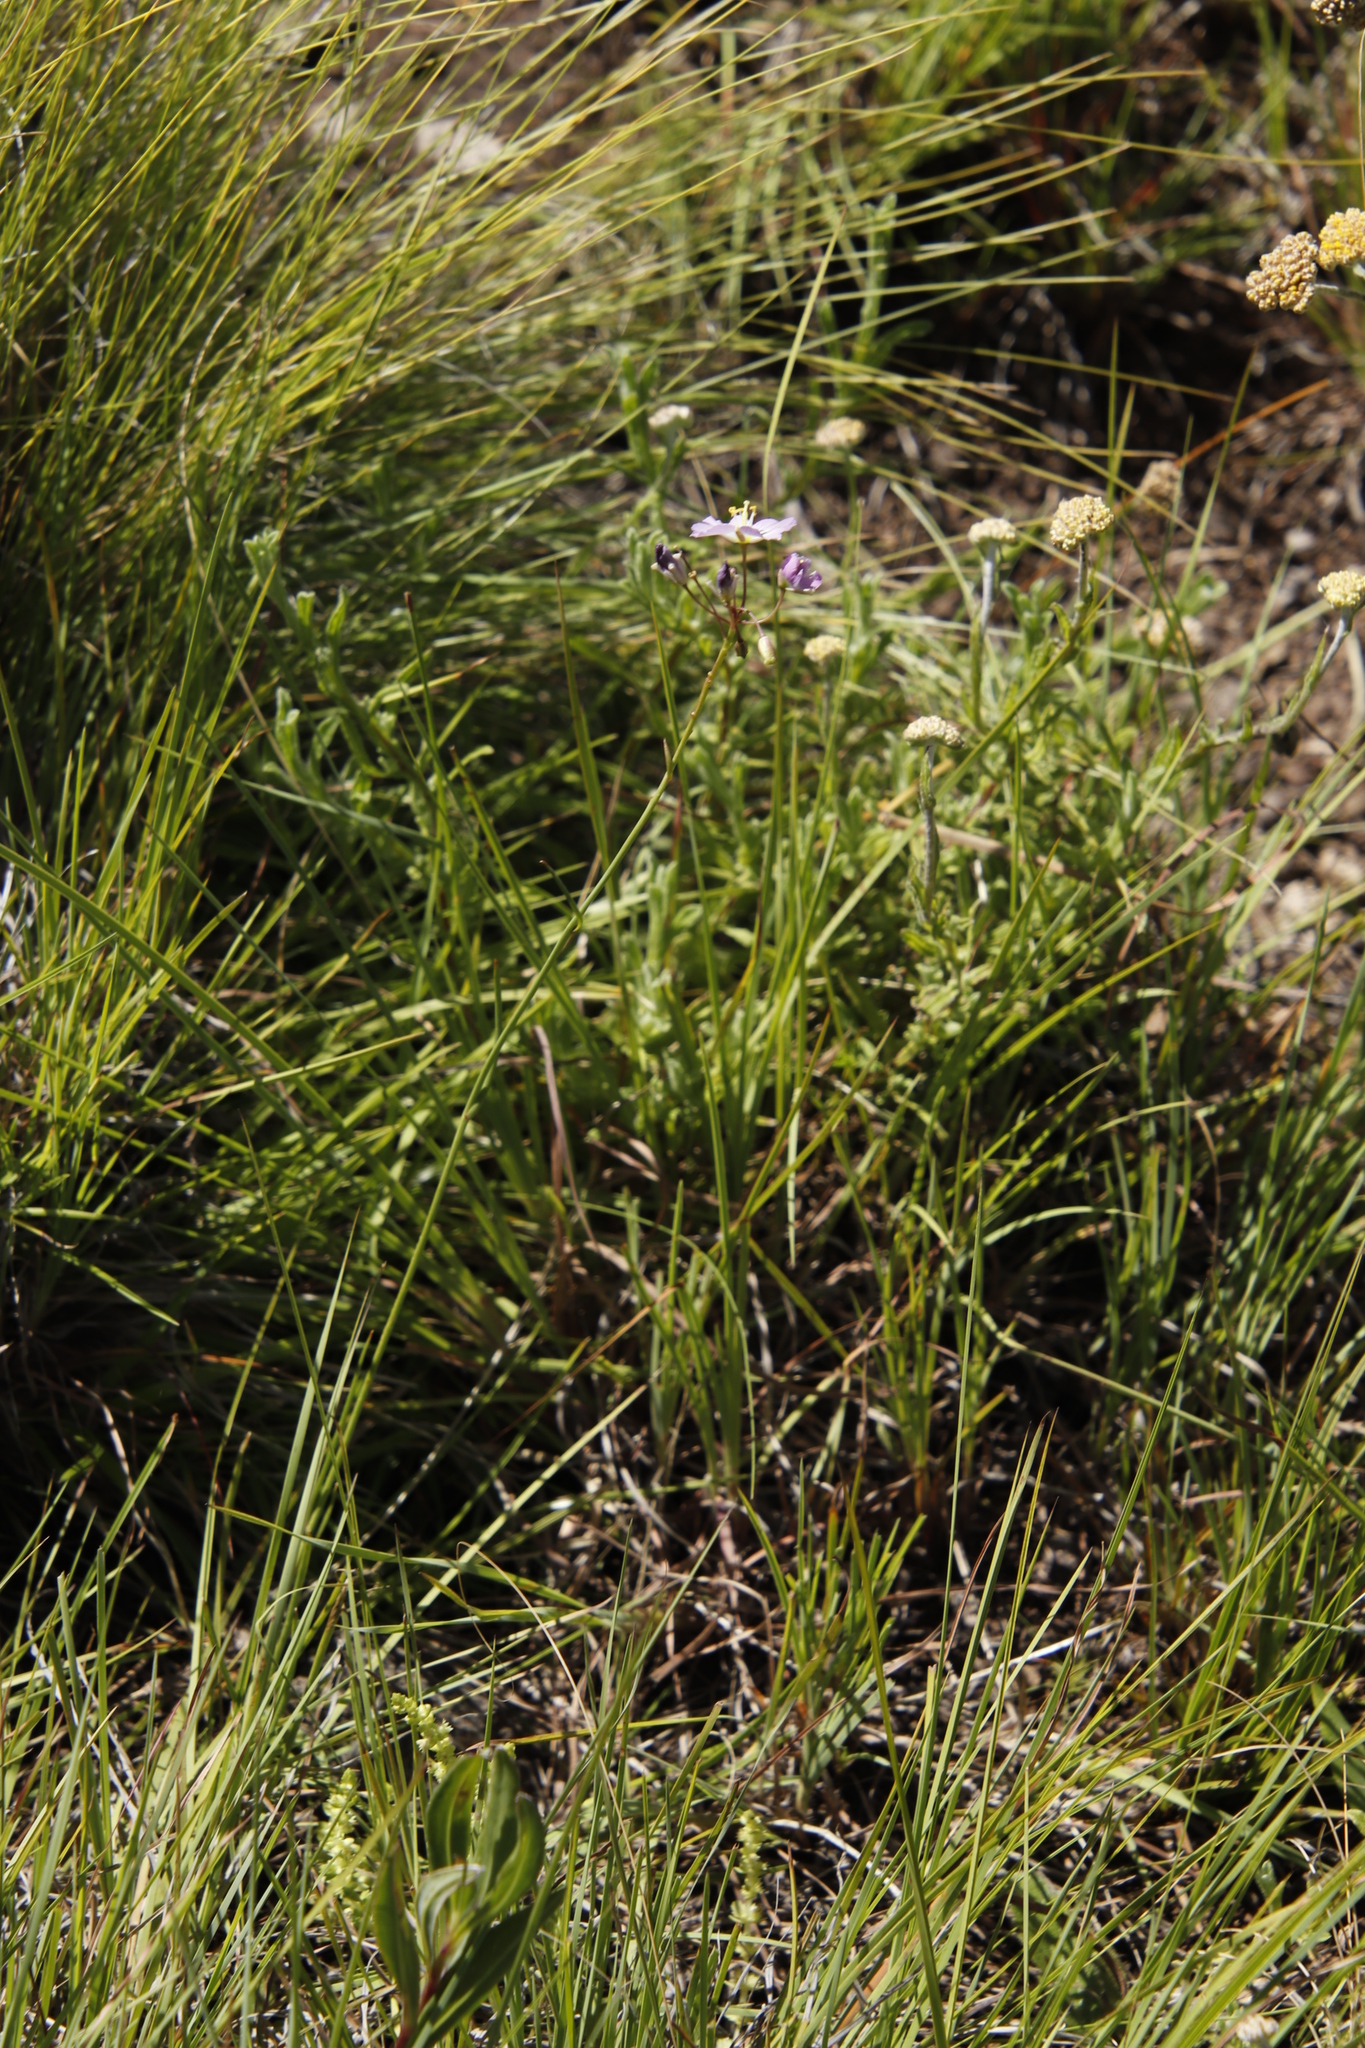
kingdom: Plantae
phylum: Tracheophyta
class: Magnoliopsida
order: Brassicales
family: Brassicaceae
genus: Heliophila
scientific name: Heliophila carnosa
